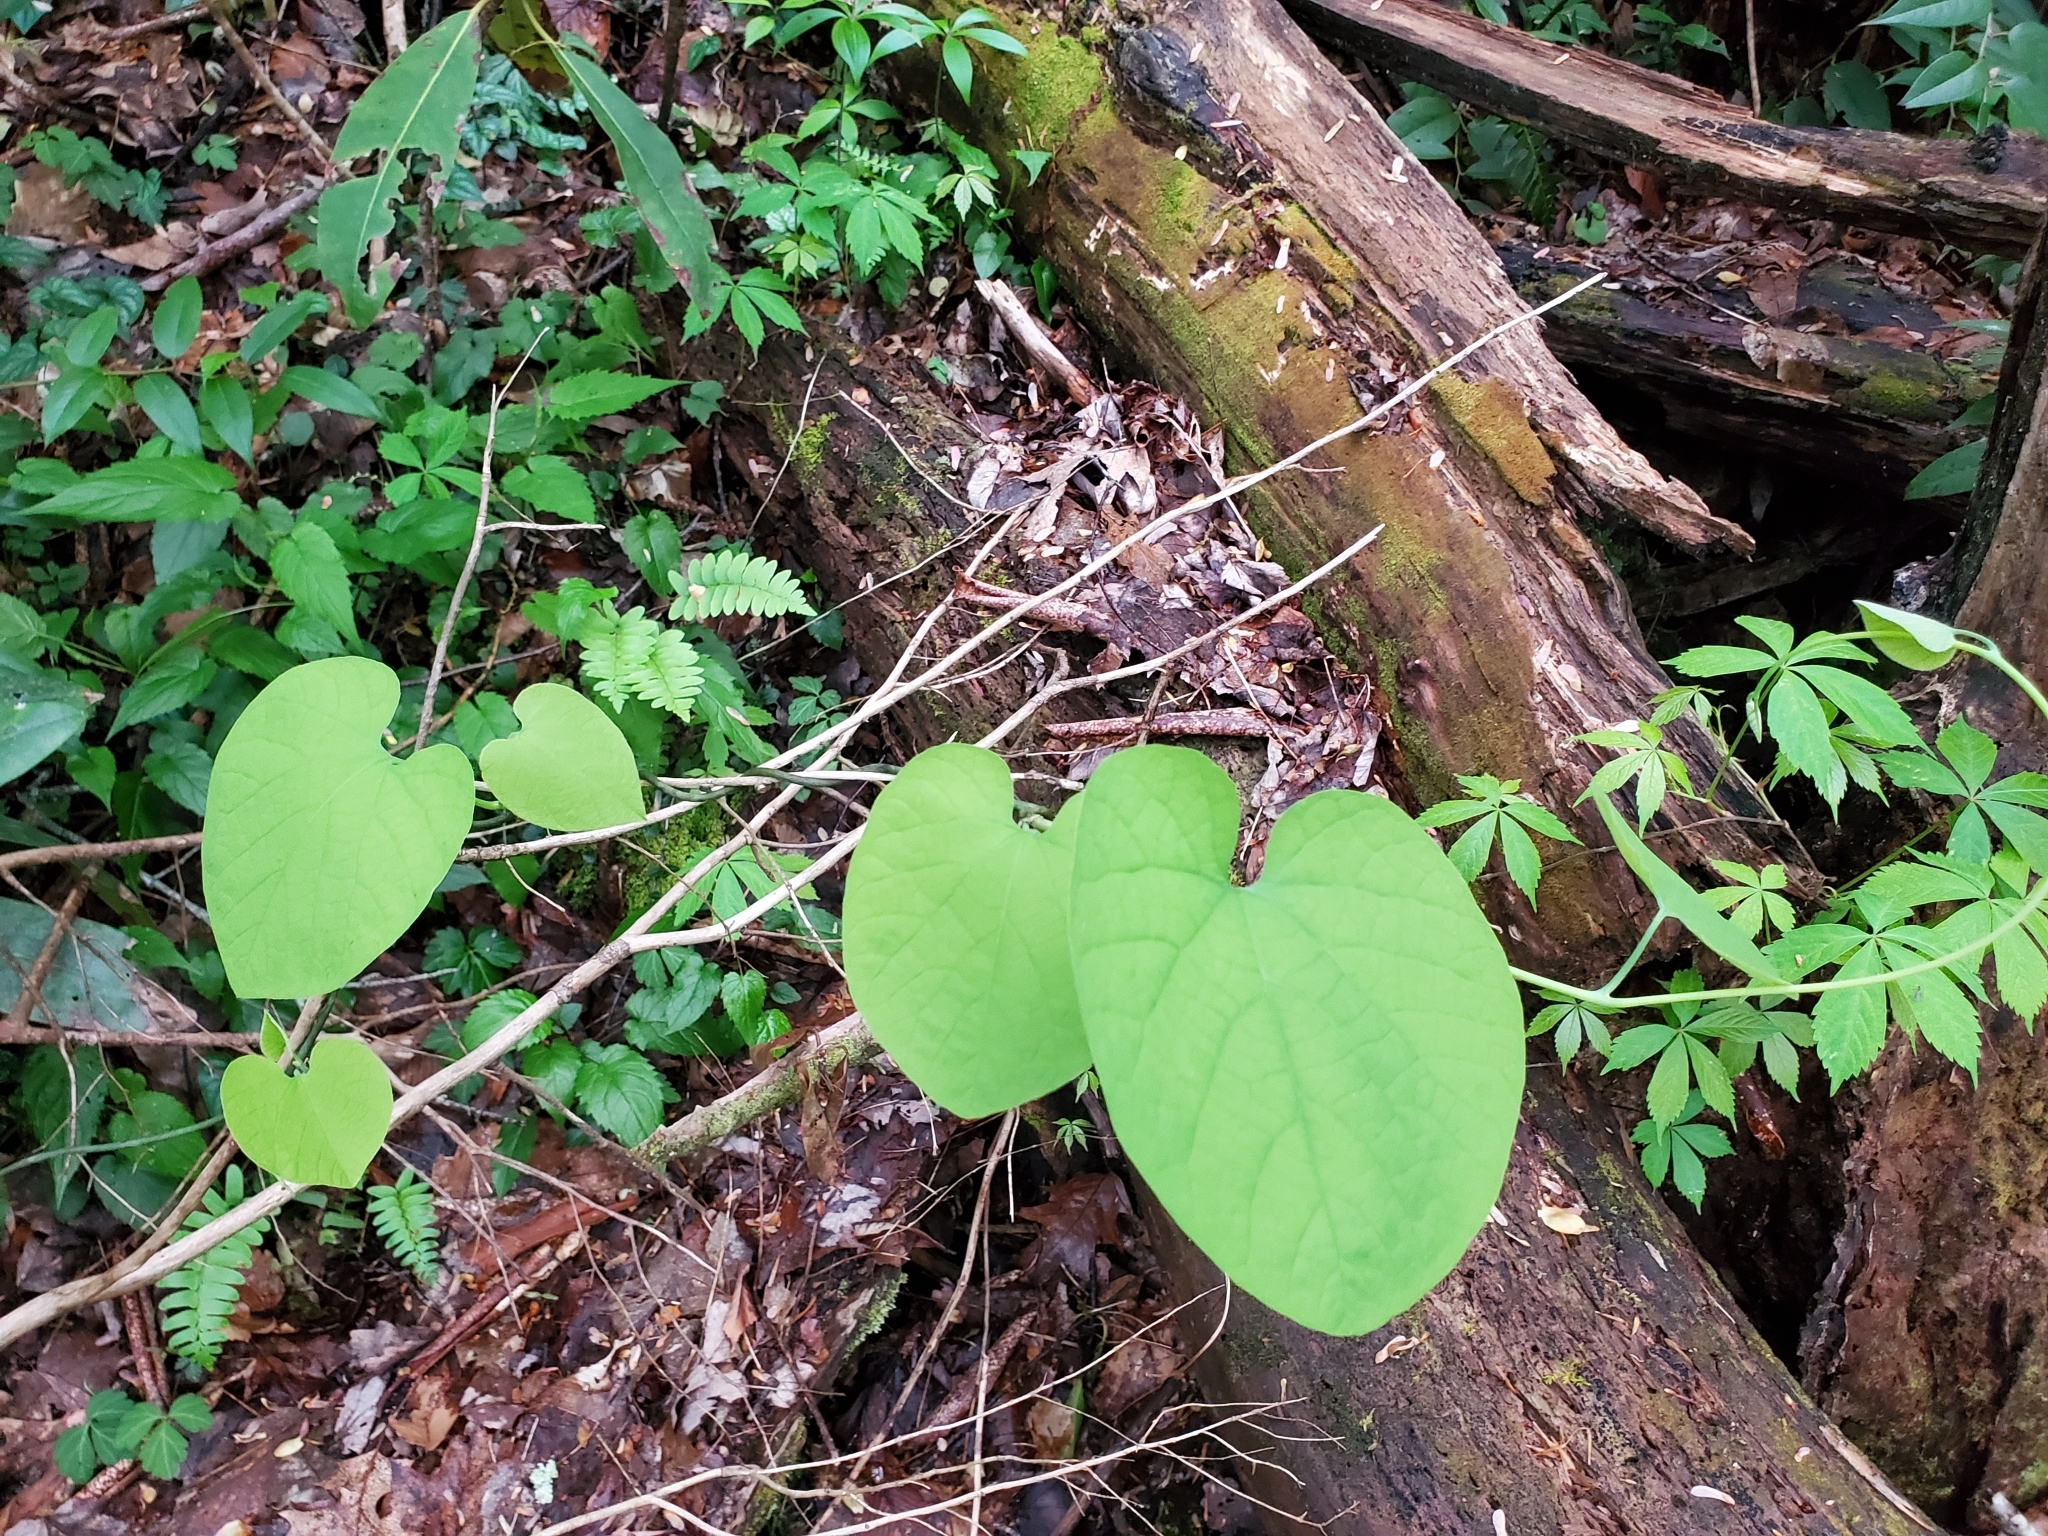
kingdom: Plantae
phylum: Tracheophyta
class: Magnoliopsida
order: Piperales
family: Aristolochiaceae
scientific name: Aristolochiaceae
